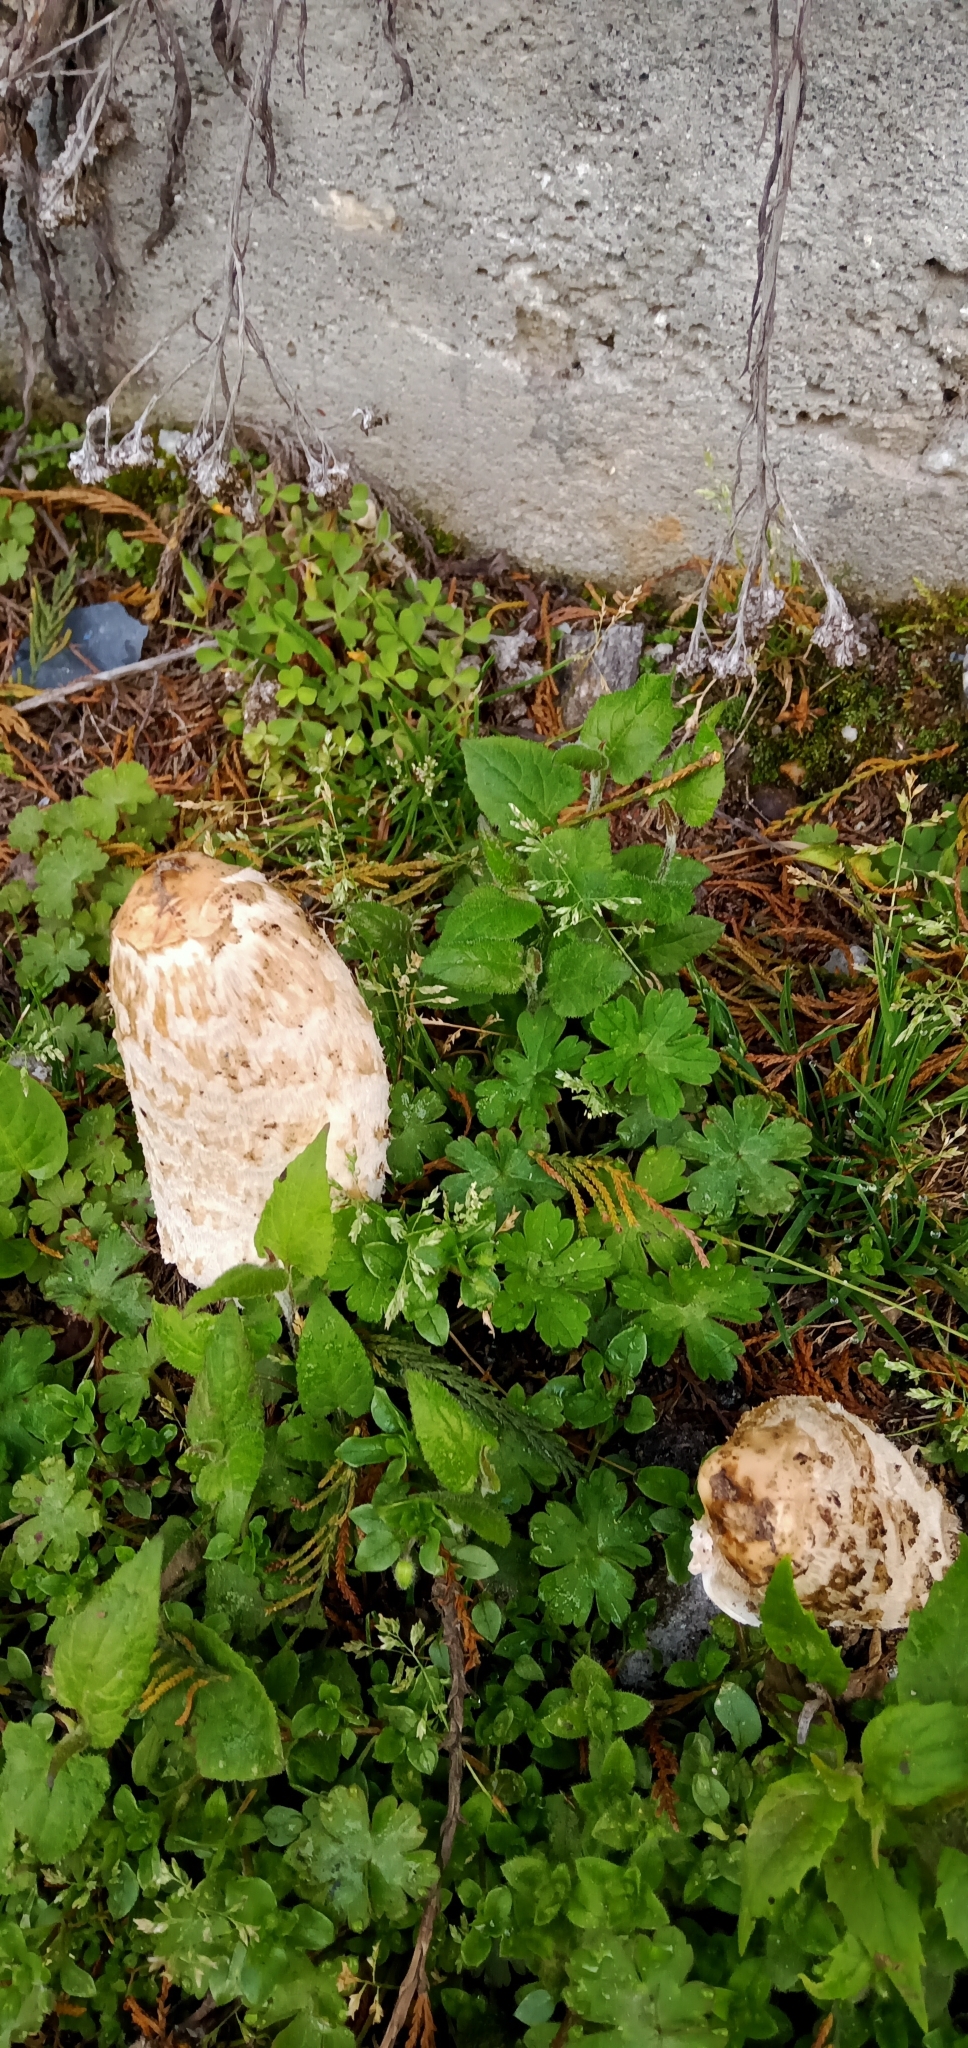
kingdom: Fungi
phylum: Basidiomycota
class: Agaricomycetes
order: Agaricales
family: Agaricaceae
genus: Coprinus
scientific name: Coprinus comatus
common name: Lawyer's wig
